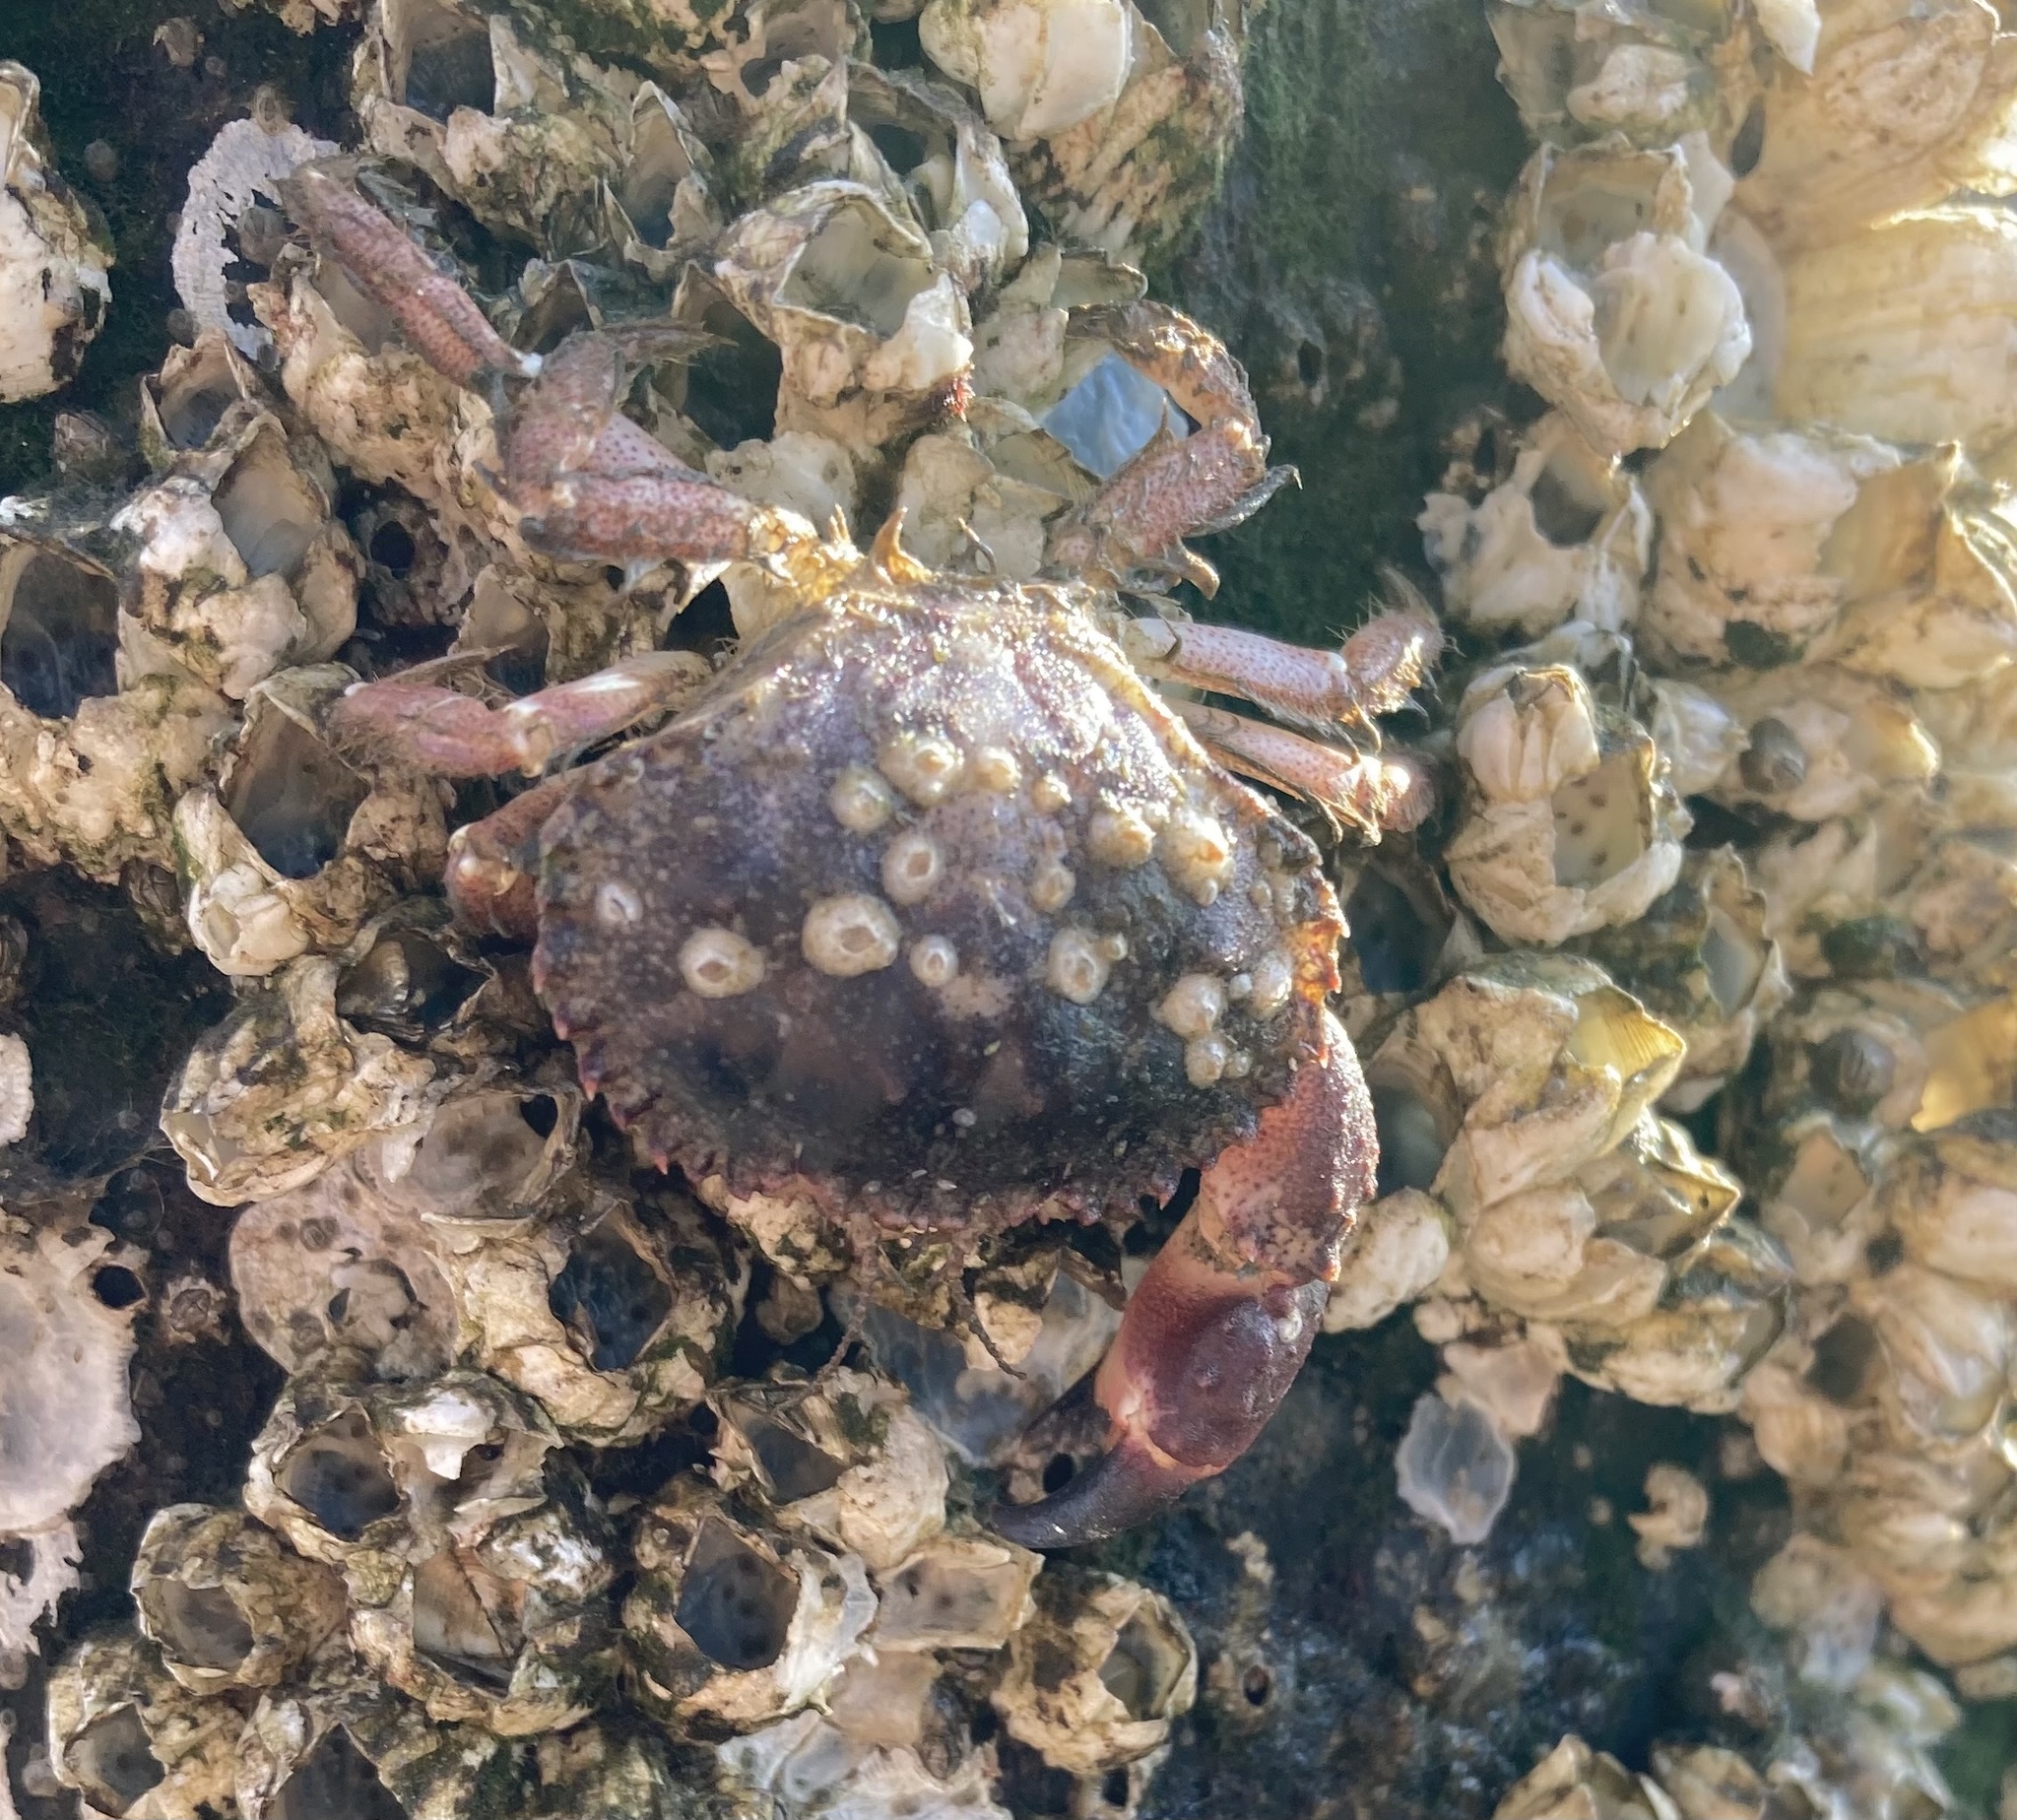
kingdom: Animalia
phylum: Arthropoda
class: Malacostraca
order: Decapoda
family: Cancridae
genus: Glebocarcinus
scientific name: Glebocarcinus oregonensis
